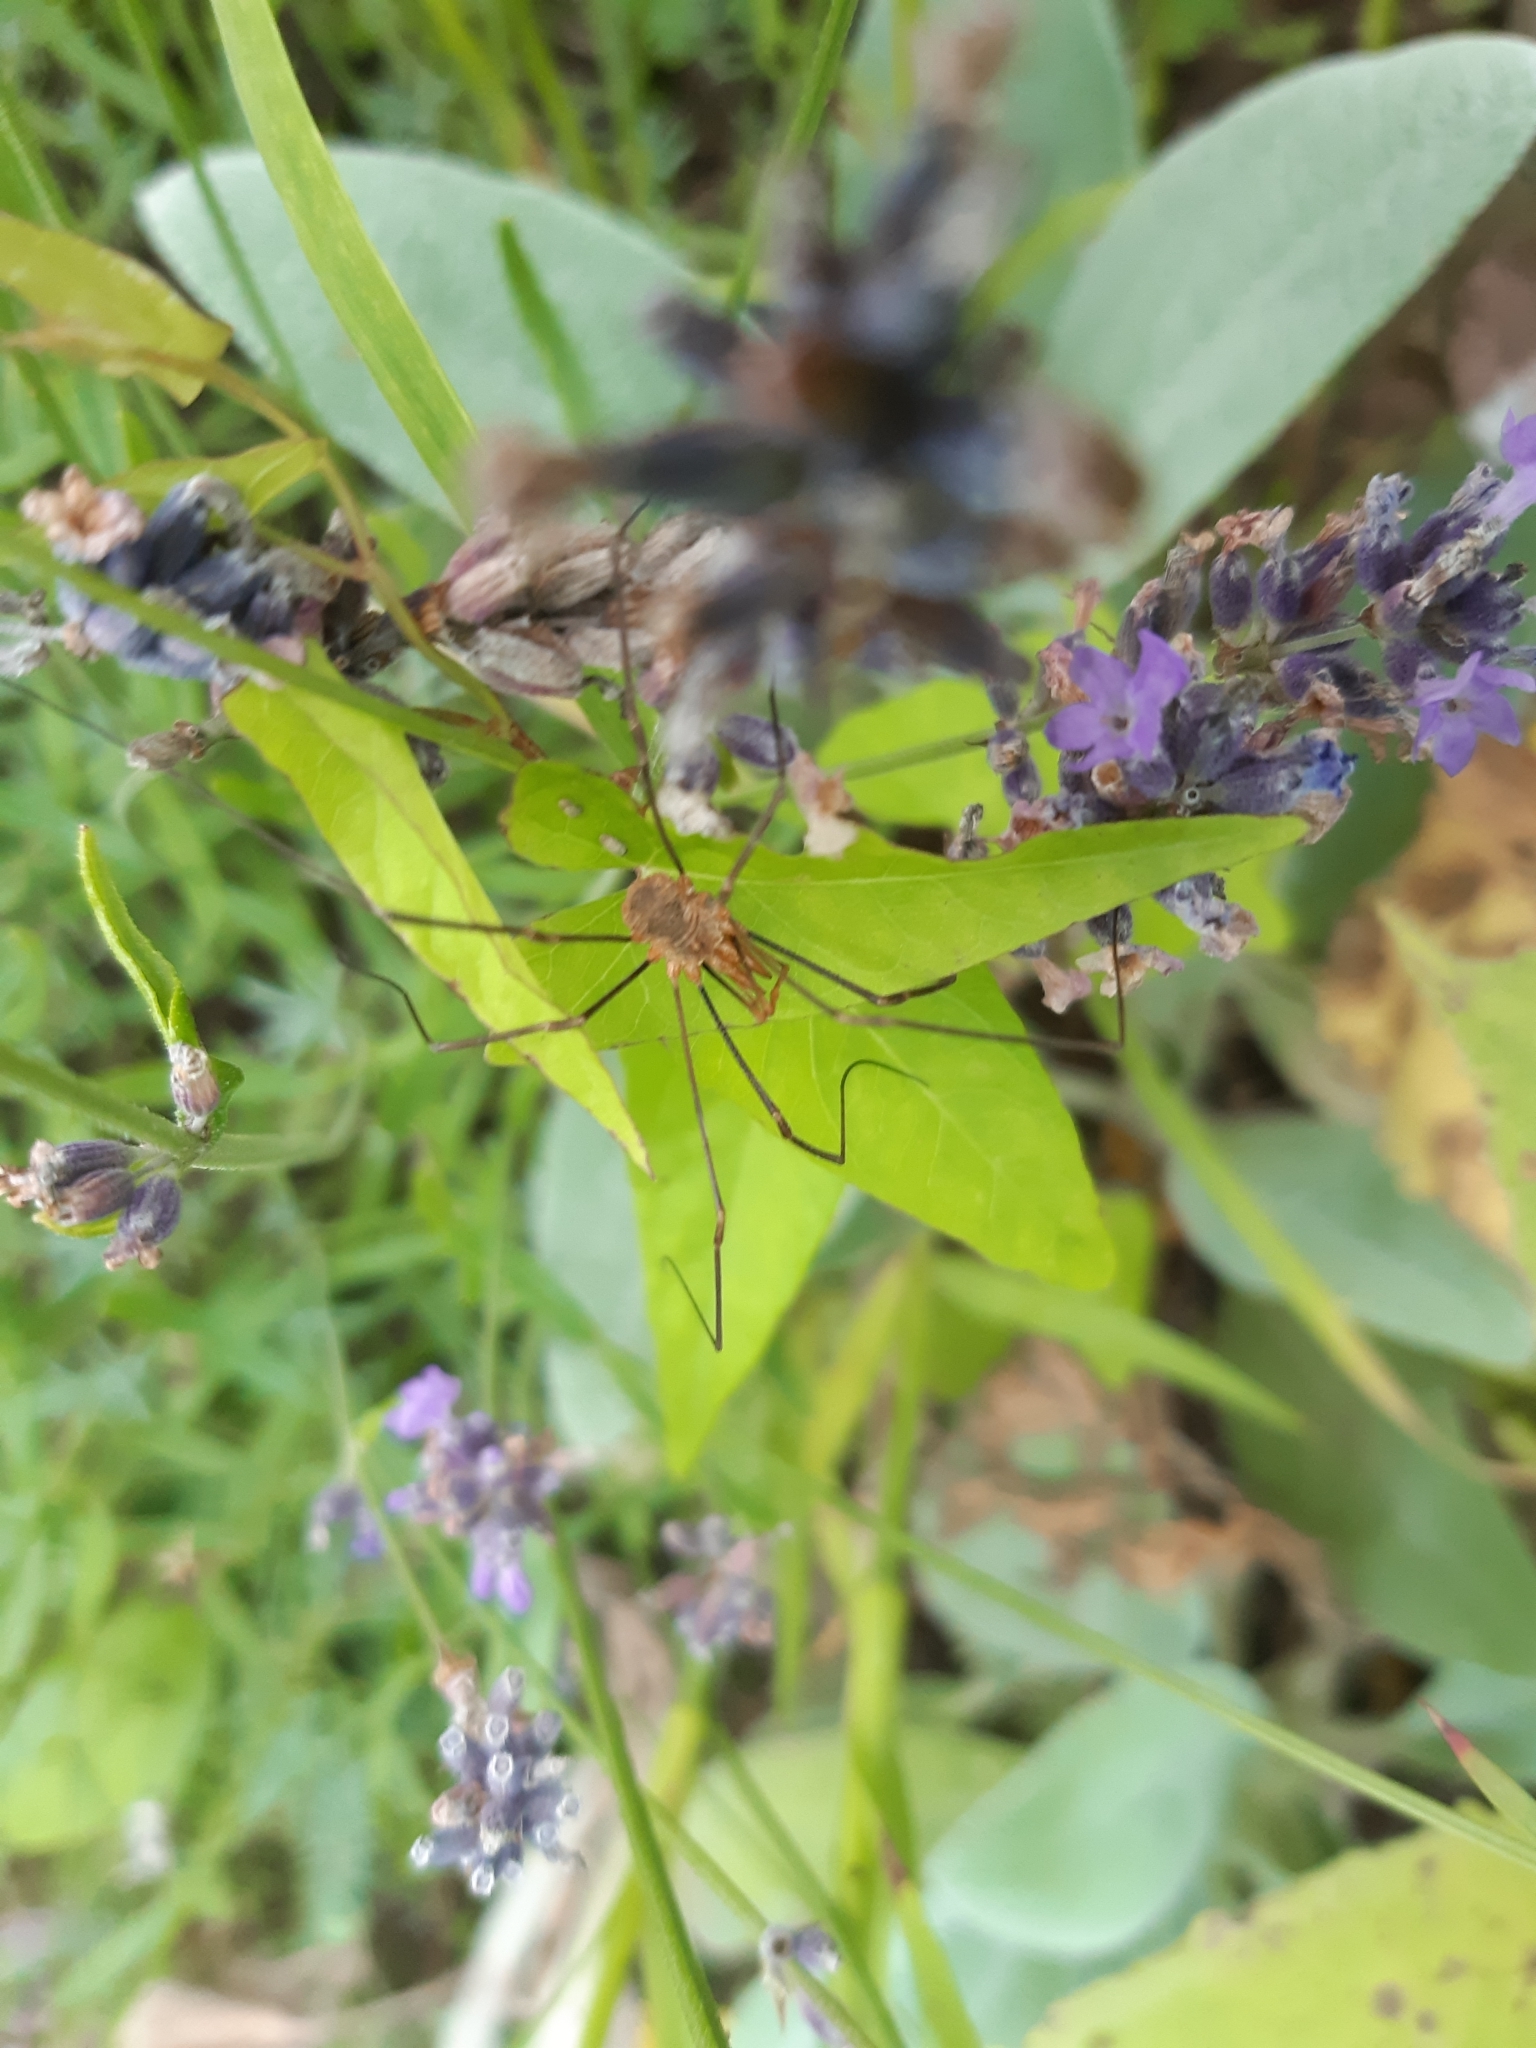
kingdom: Animalia
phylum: Arthropoda
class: Arachnida
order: Opiliones
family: Phalangiidae
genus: Phalangium
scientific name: Phalangium opilio
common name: Daddy longleg
